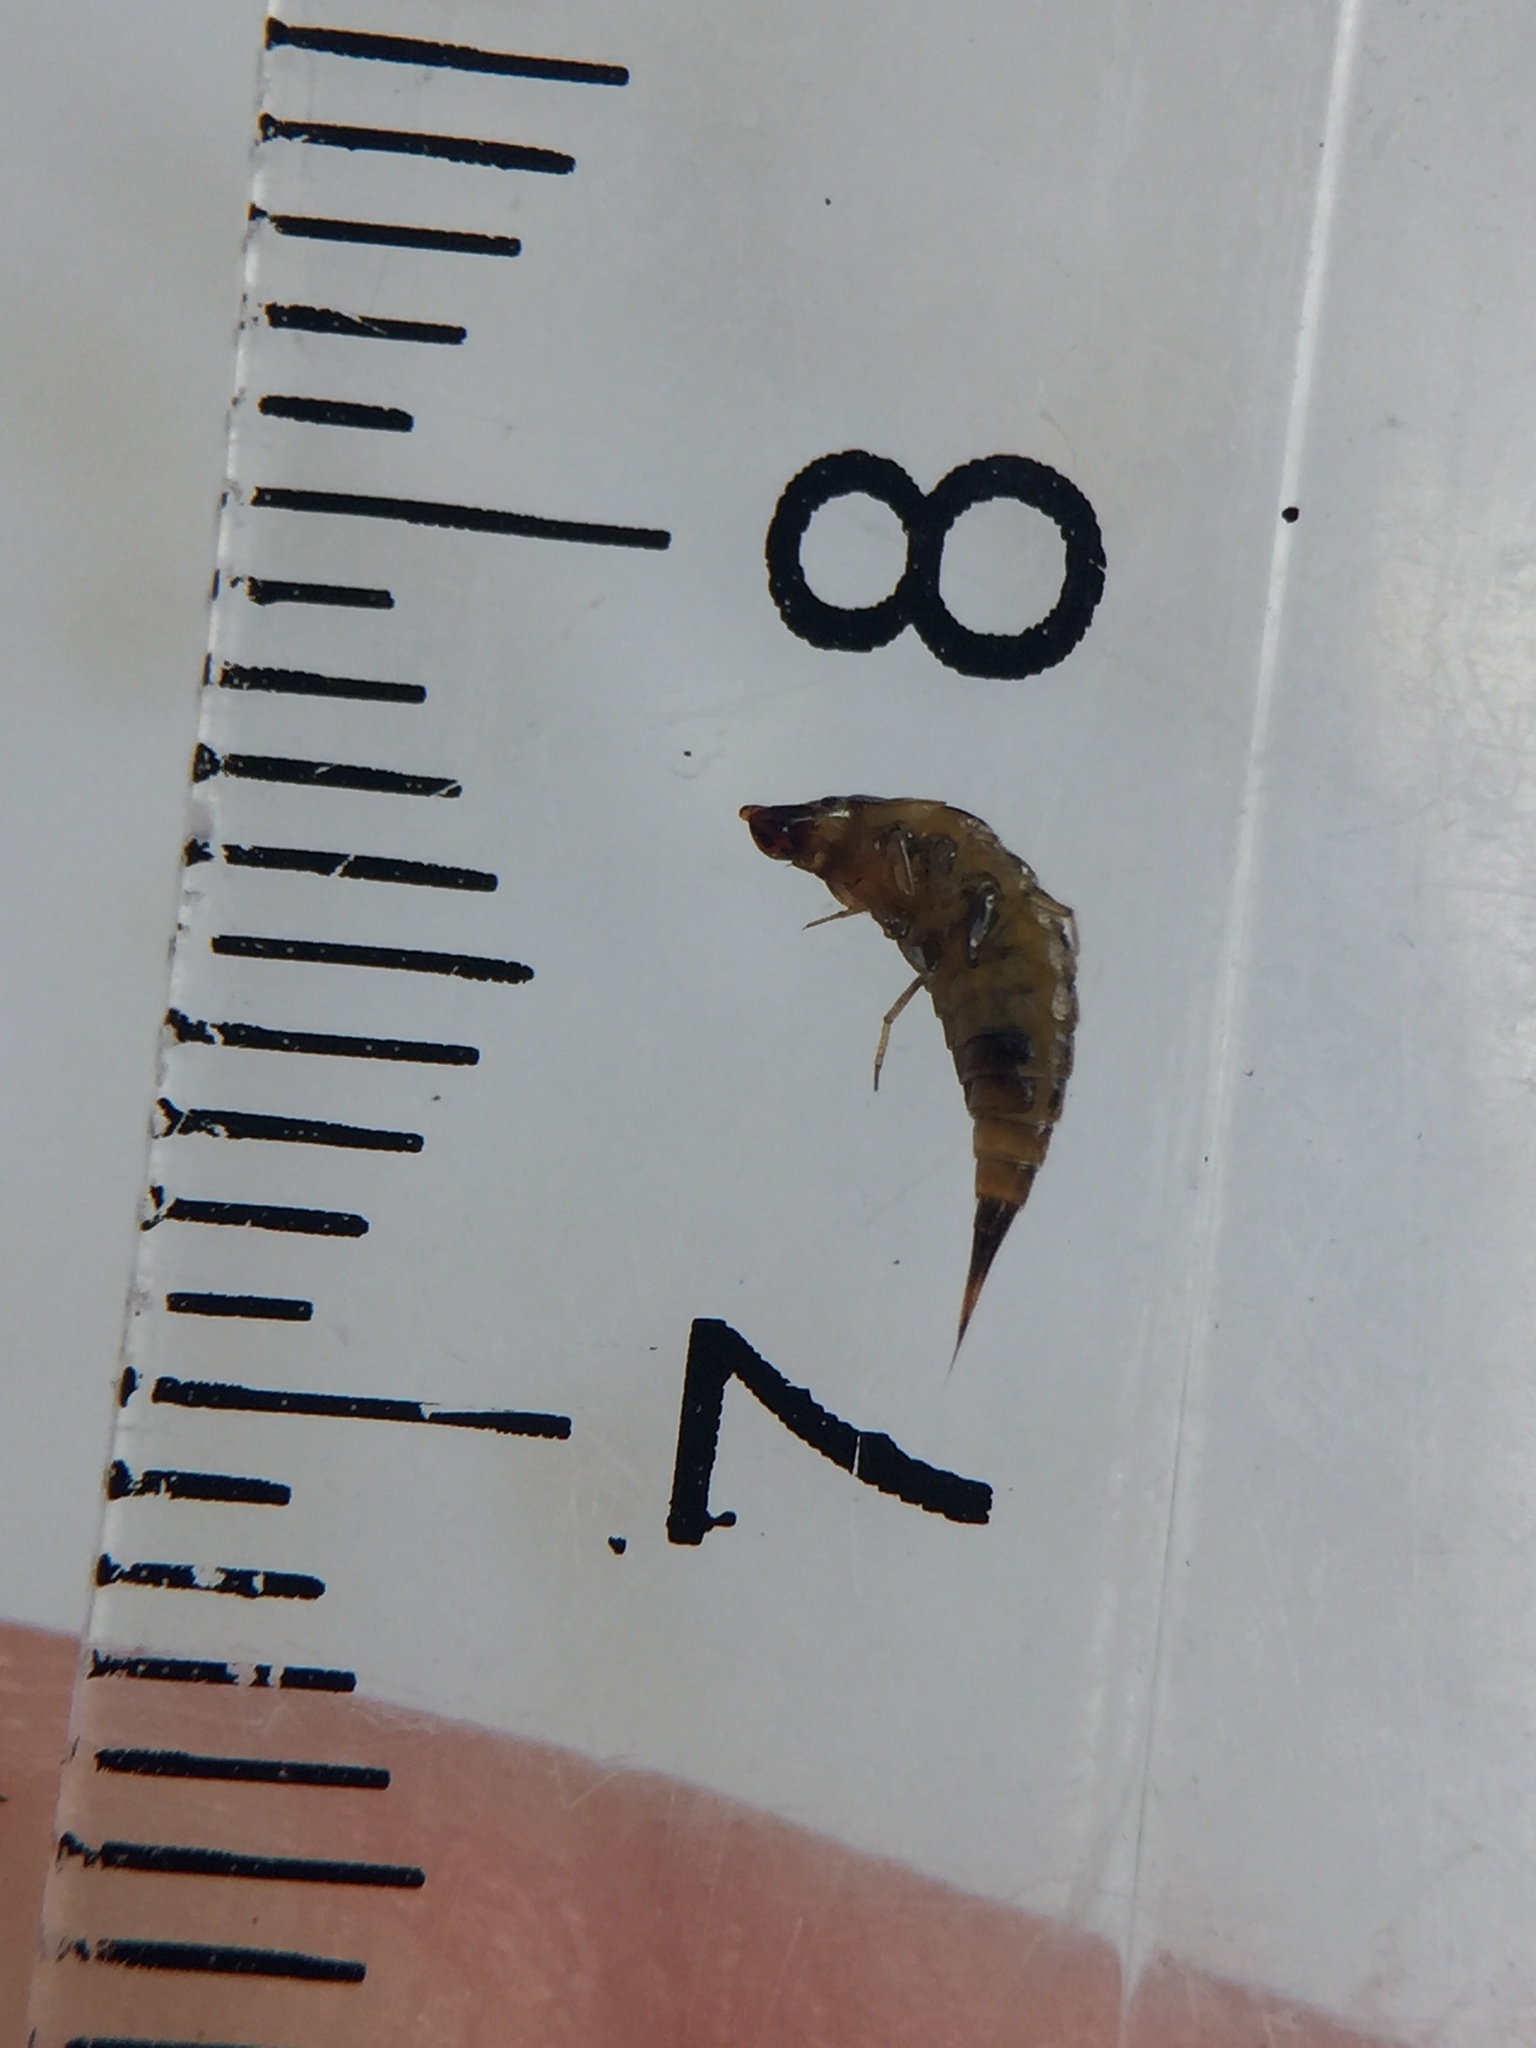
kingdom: Animalia
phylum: Arthropoda
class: Insecta
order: Coleoptera
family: Dytiscidae
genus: Hyphydrus
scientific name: Hyphydrus elegans
